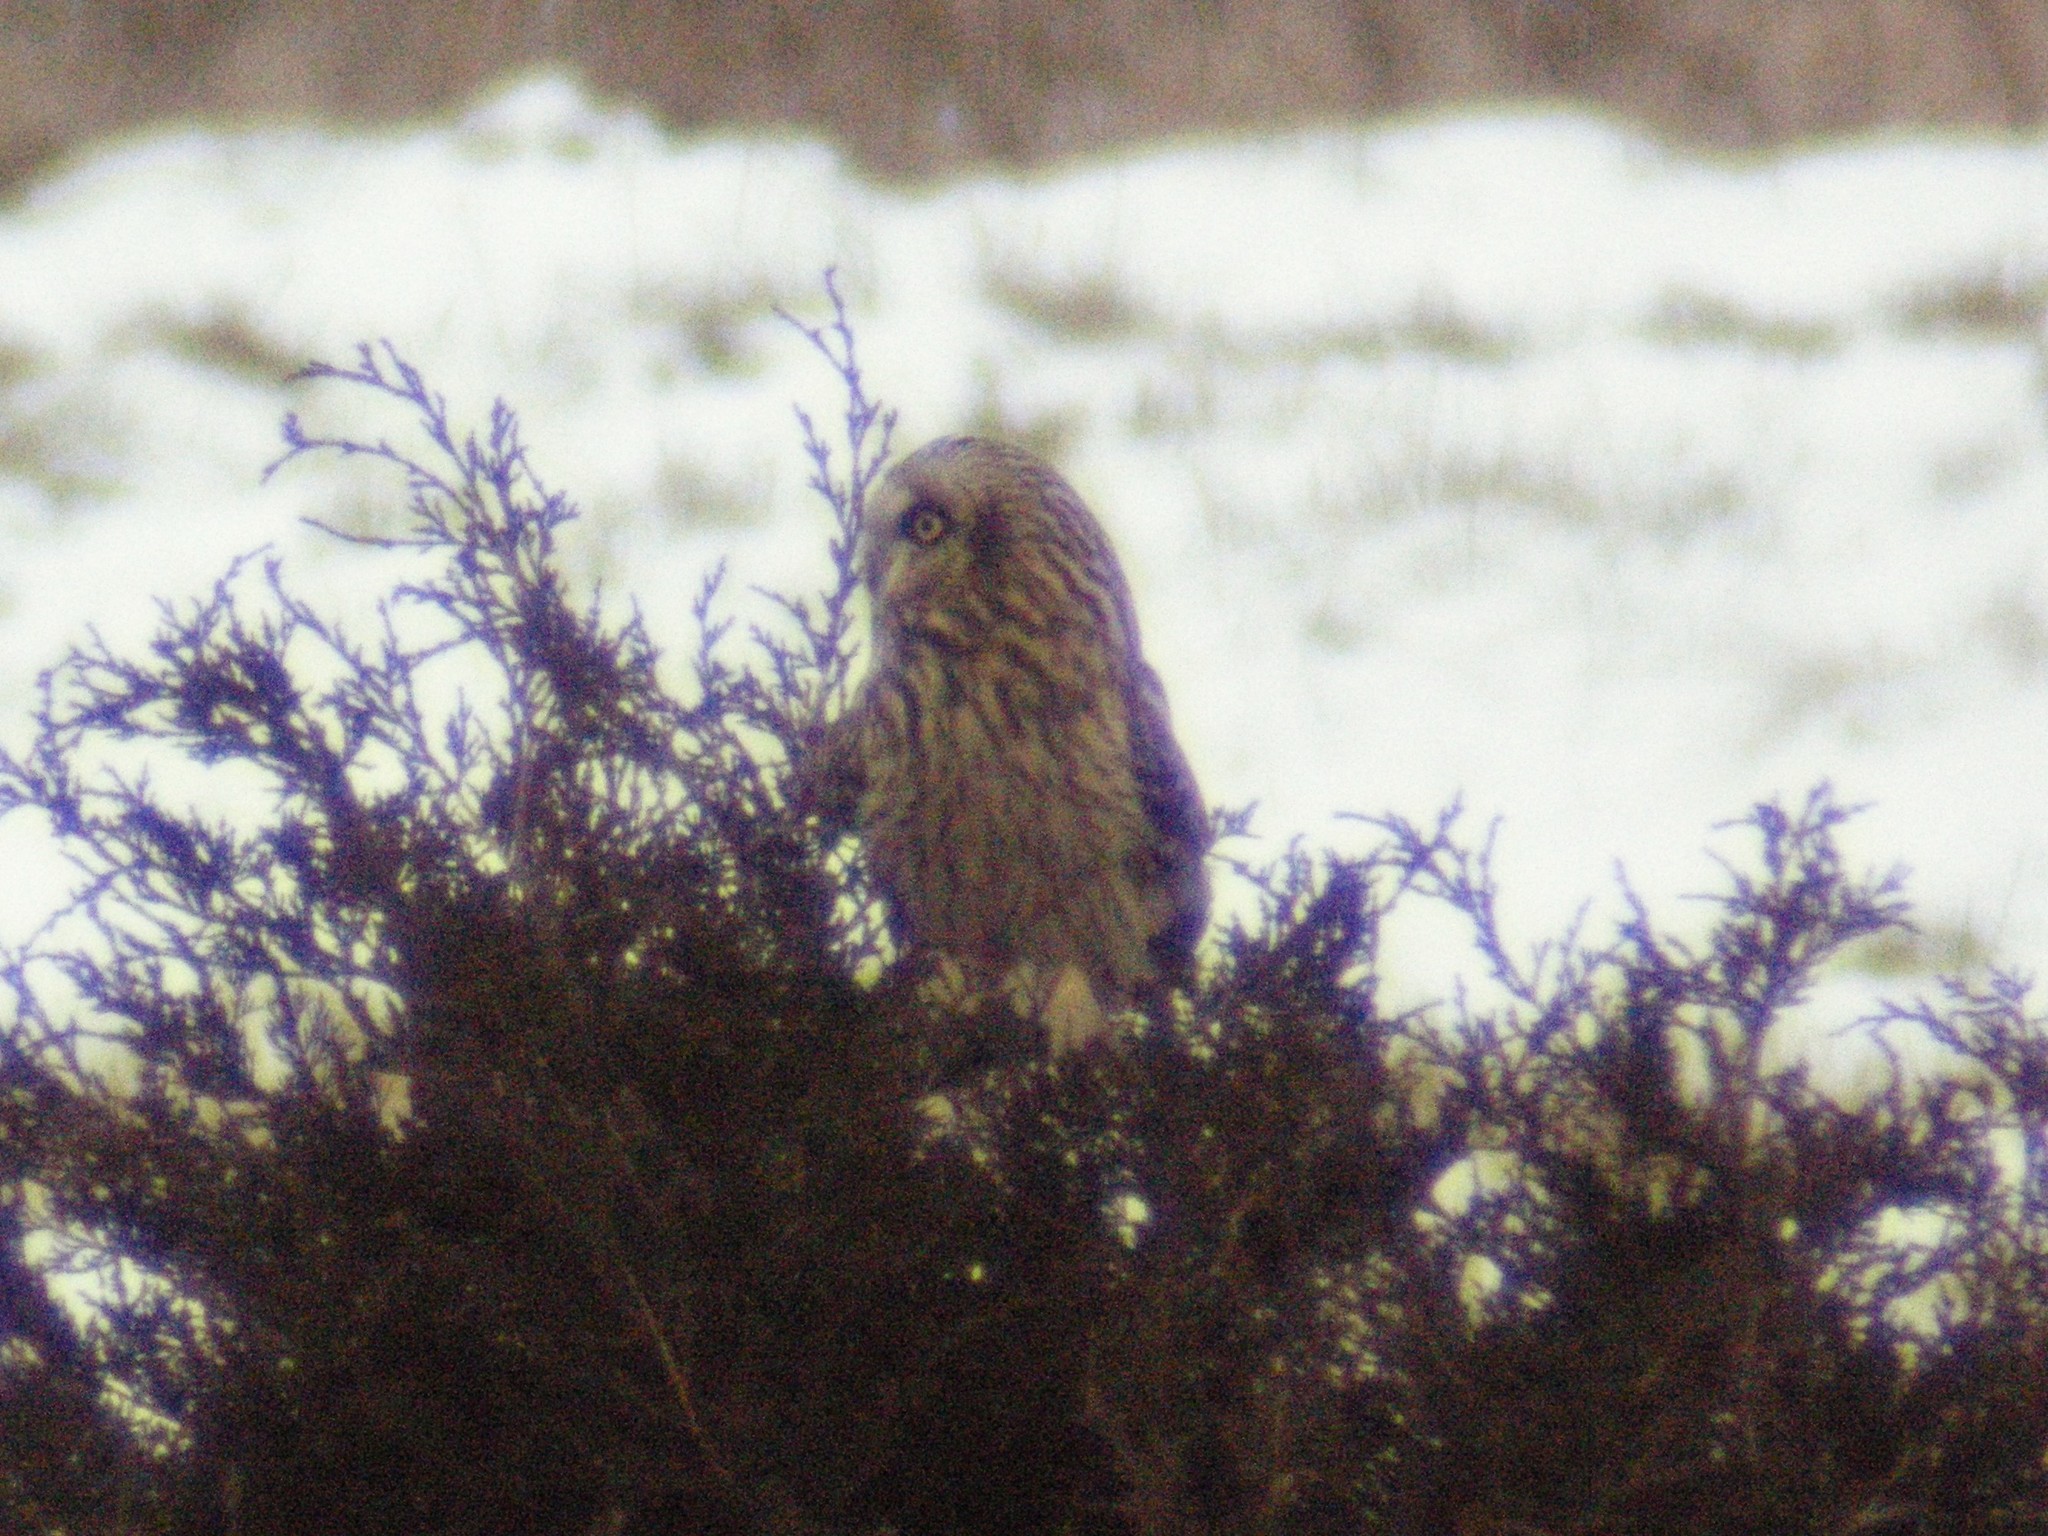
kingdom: Animalia
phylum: Chordata
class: Aves
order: Strigiformes
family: Strigidae
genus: Asio
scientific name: Asio flammeus
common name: Short-eared owl
